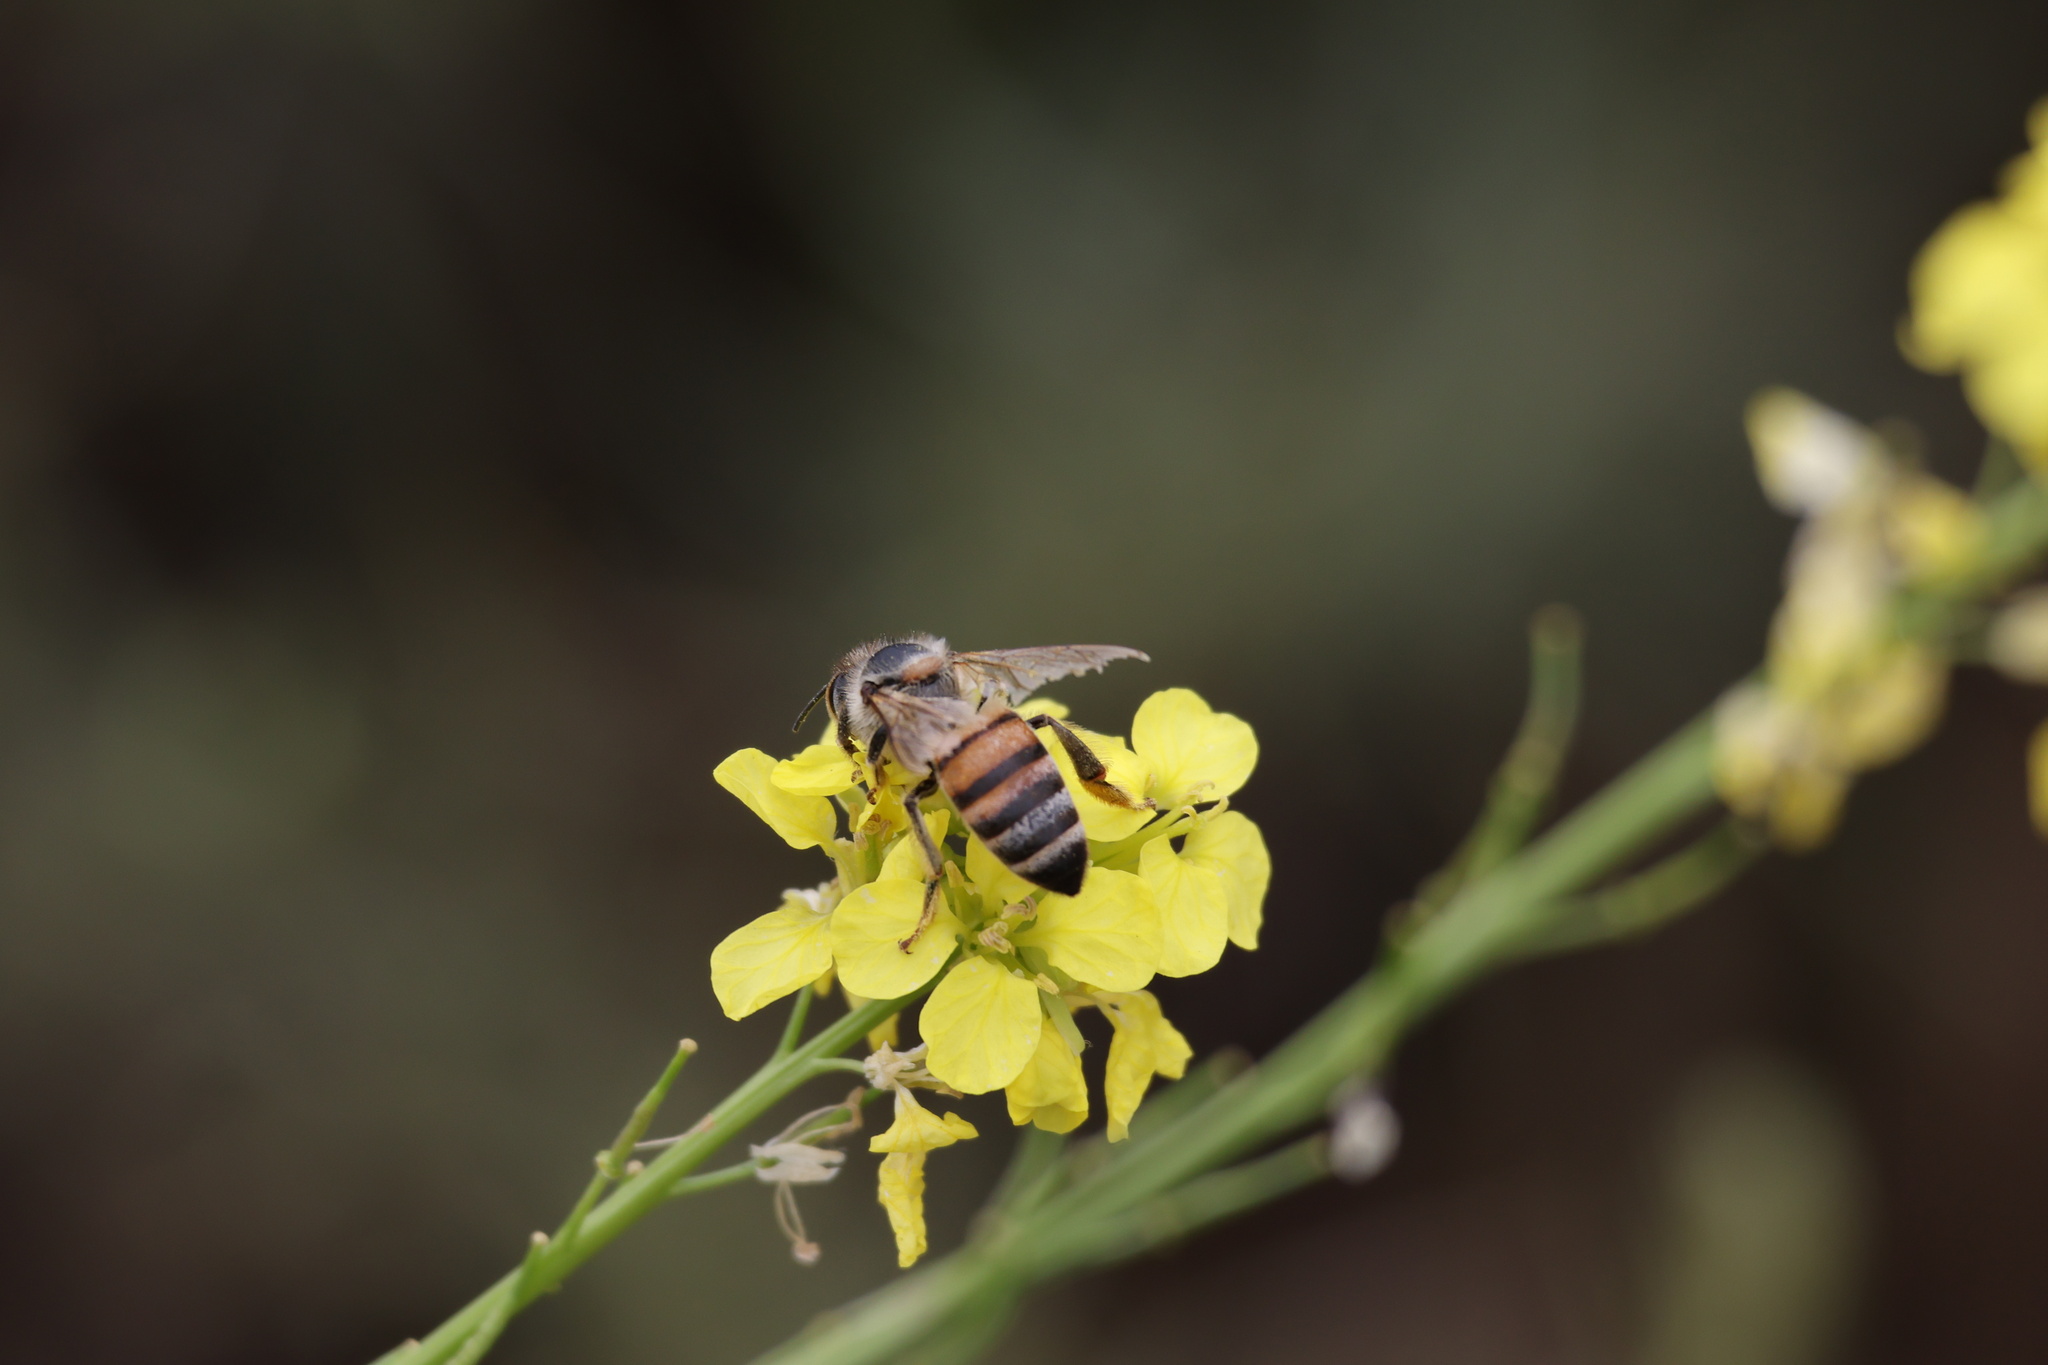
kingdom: Animalia
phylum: Arthropoda
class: Insecta
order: Hymenoptera
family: Apidae
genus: Apis
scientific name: Apis mellifera
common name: Honey bee
